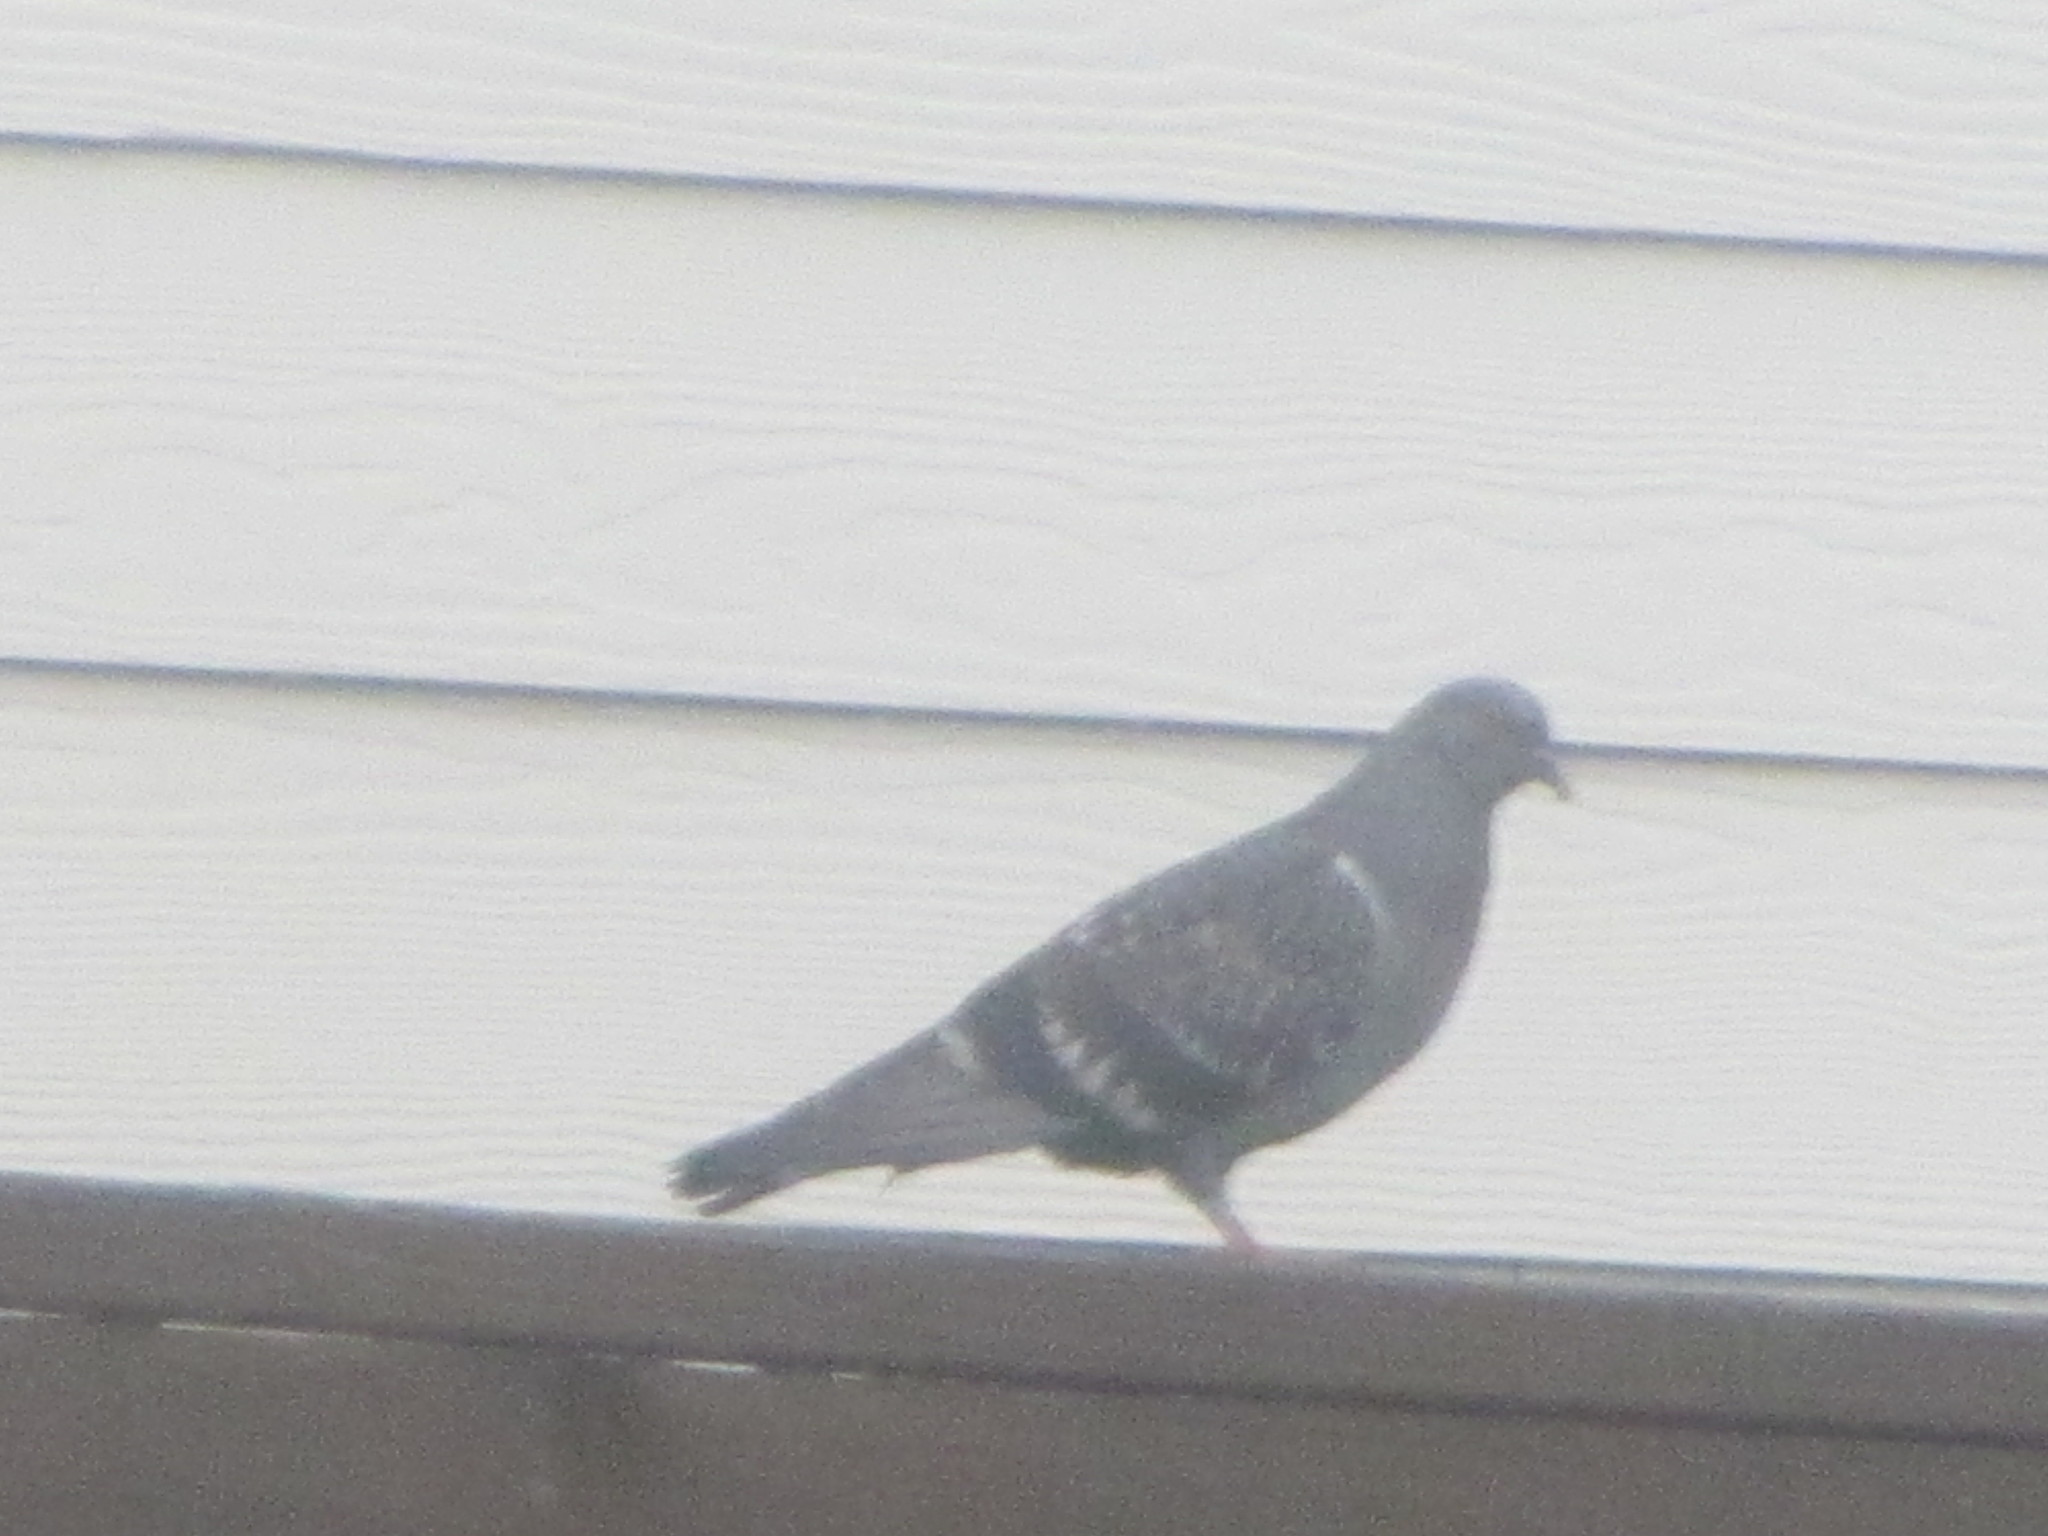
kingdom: Animalia
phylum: Chordata
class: Aves
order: Columbiformes
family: Columbidae
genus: Columba
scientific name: Columba livia
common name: Rock pigeon
